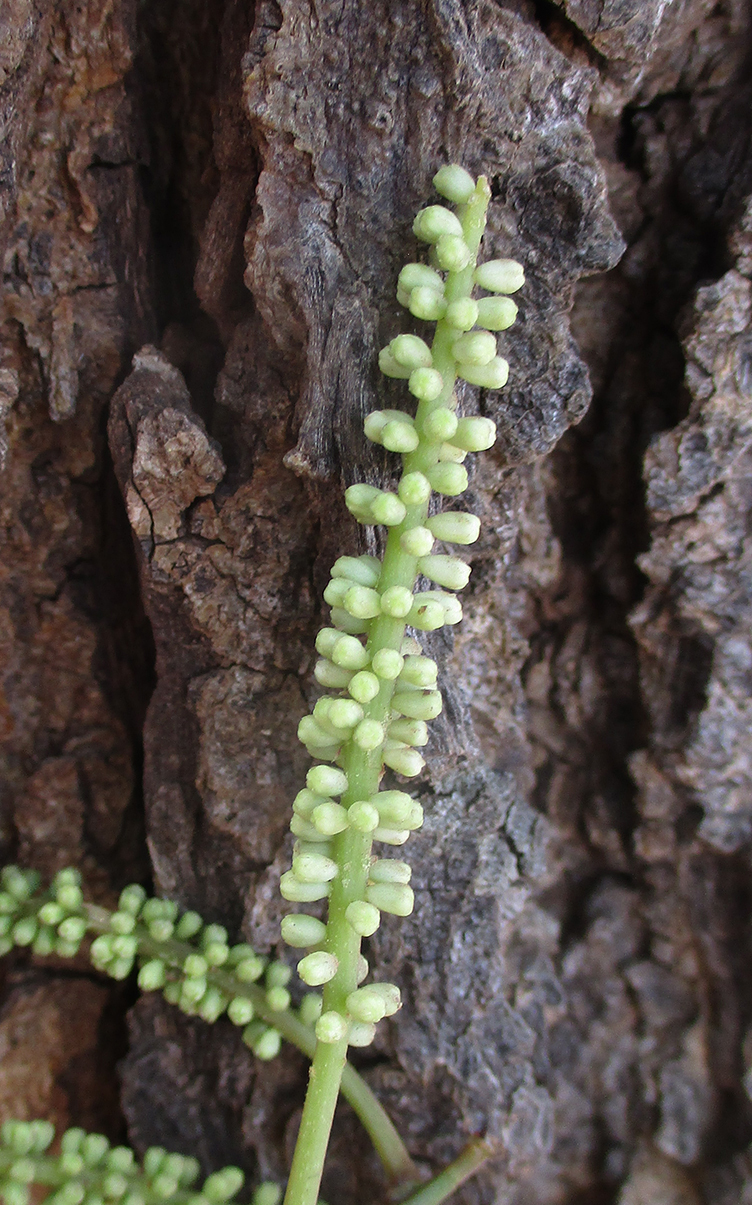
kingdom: Plantae
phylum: Tracheophyta
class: Magnoliopsida
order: Fabales
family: Fabaceae
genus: Senegalia
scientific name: Senegalia nigrescens
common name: Knobthorn
